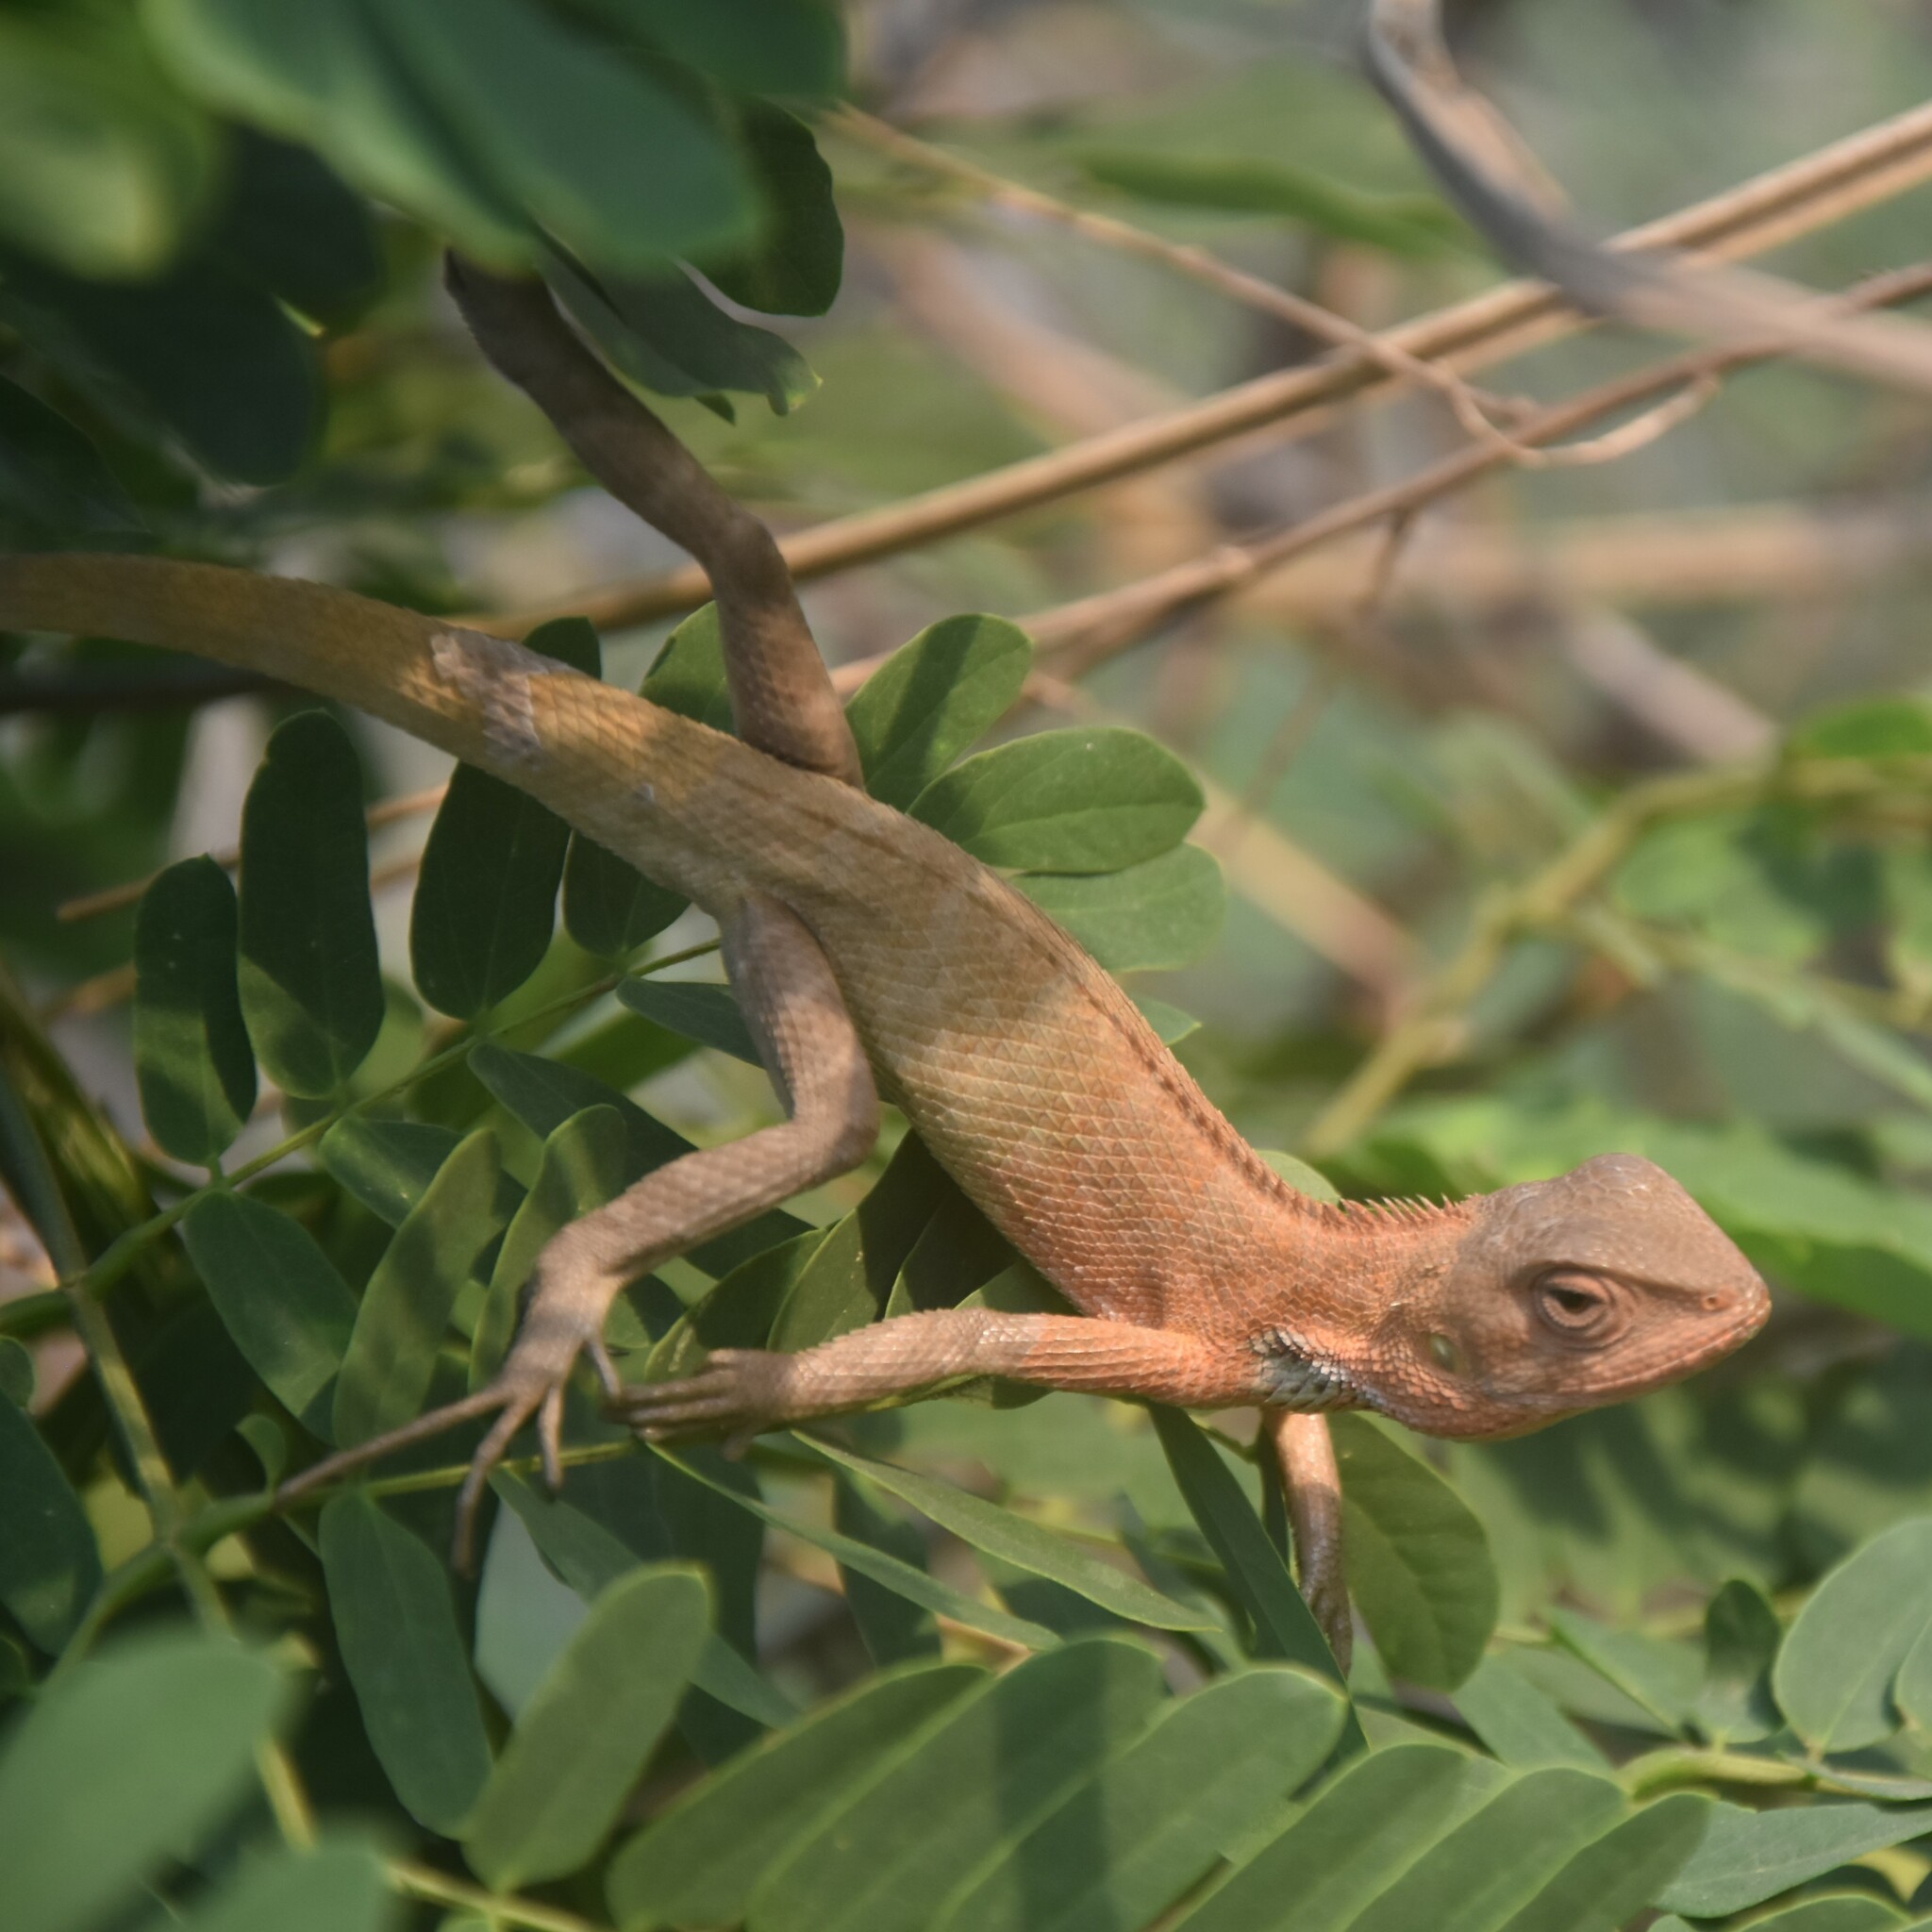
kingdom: Animalia
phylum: Chordata
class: Squamata
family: Agamidae
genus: Calotes
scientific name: Calotes versicolor
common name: Oriental garden lizard
